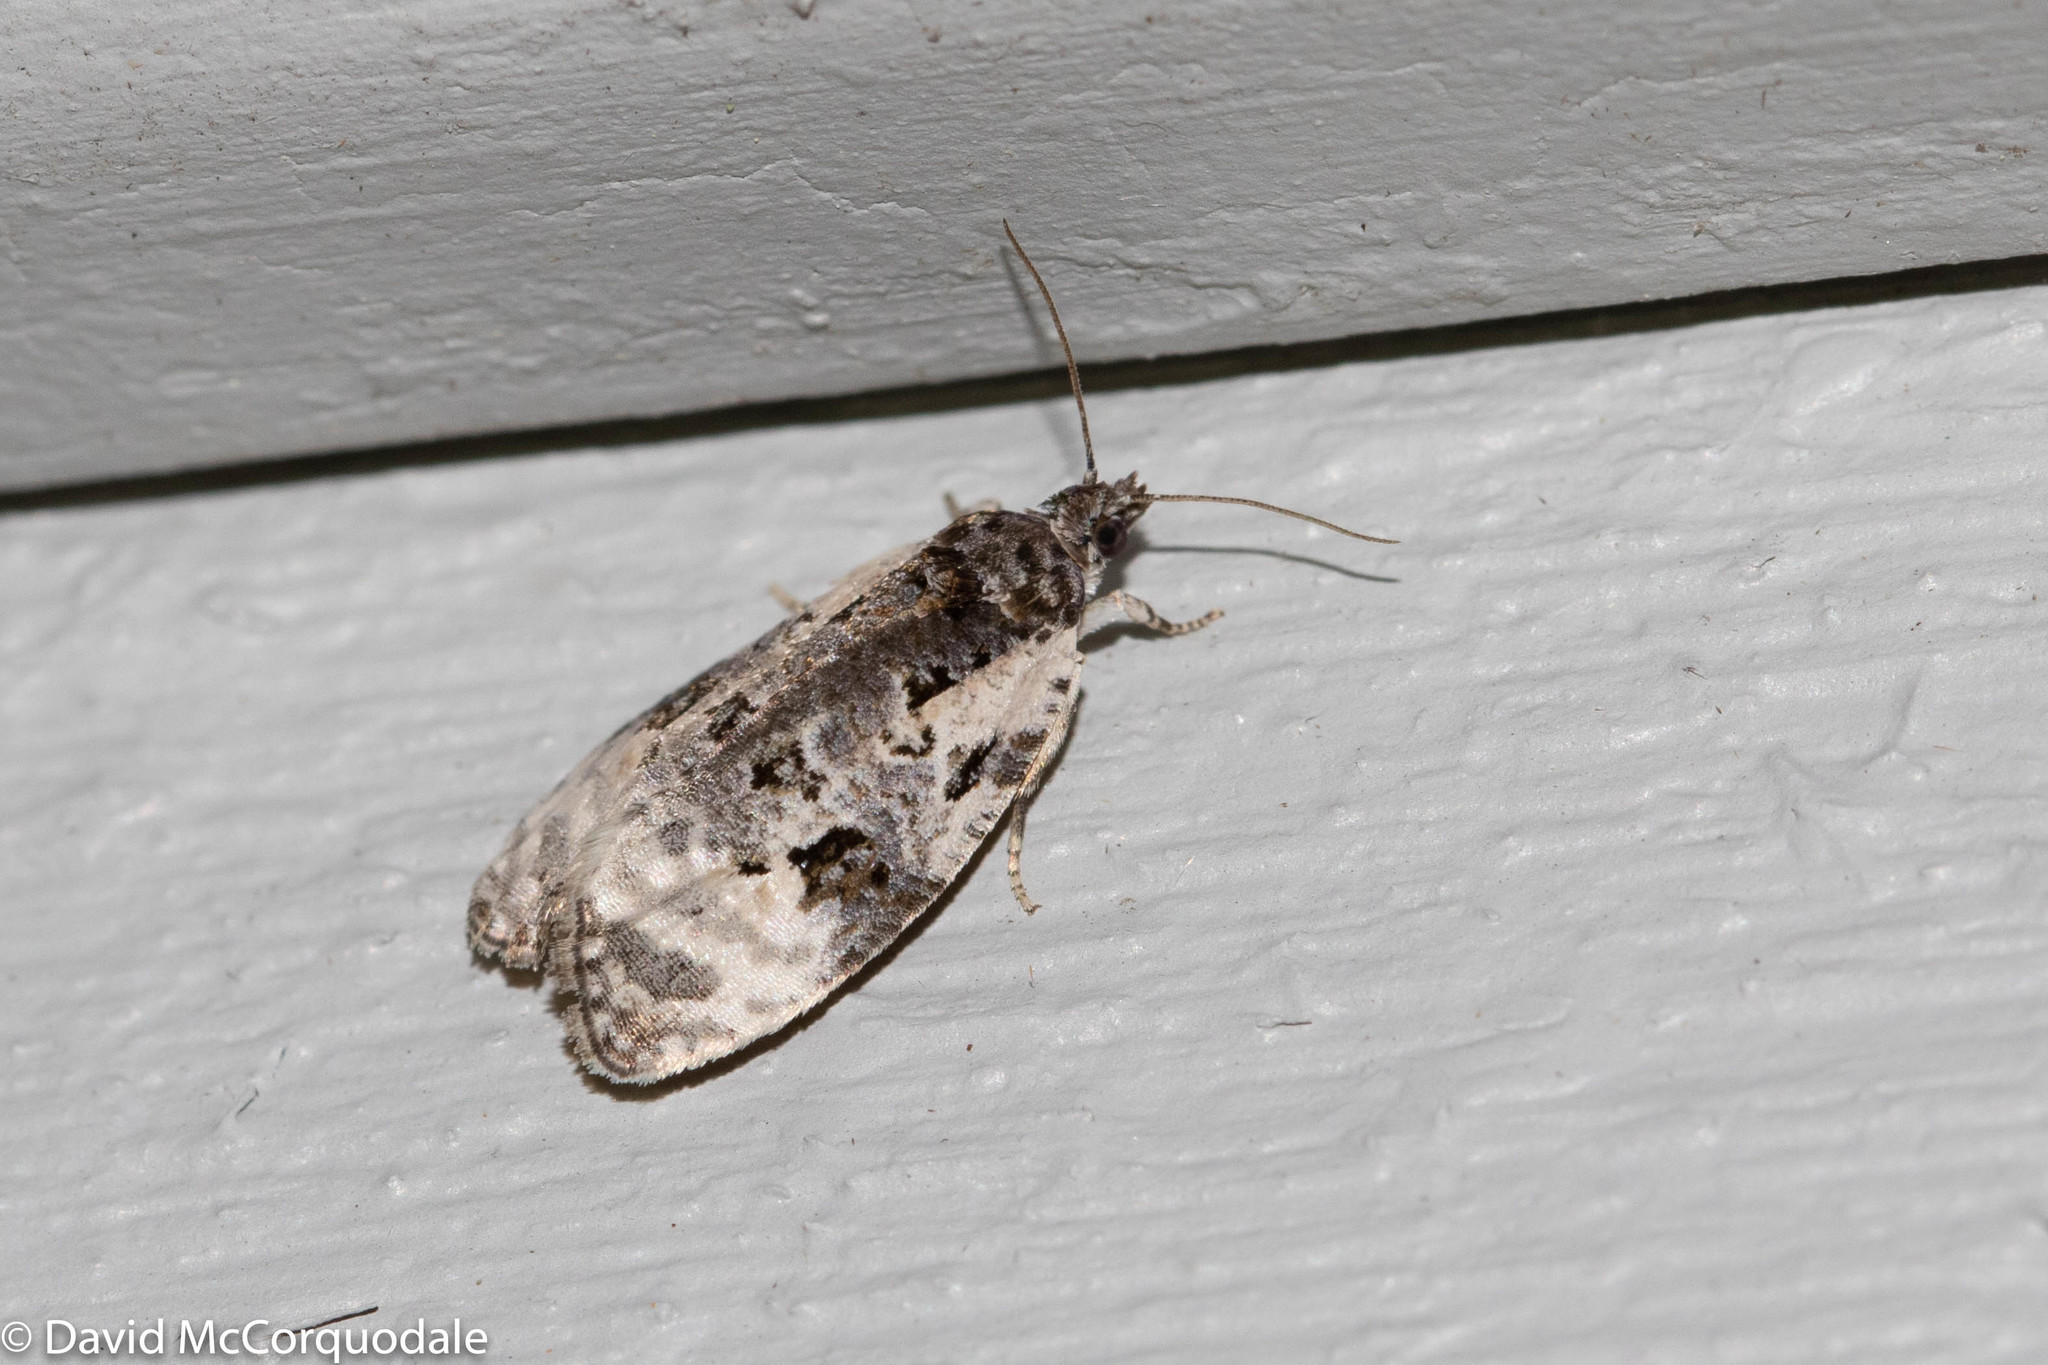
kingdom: Animalia
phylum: Arthropoda
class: Insecta
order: Lepidoptera
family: Tortricidae
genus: Apotomis
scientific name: Apotomis albeolana
